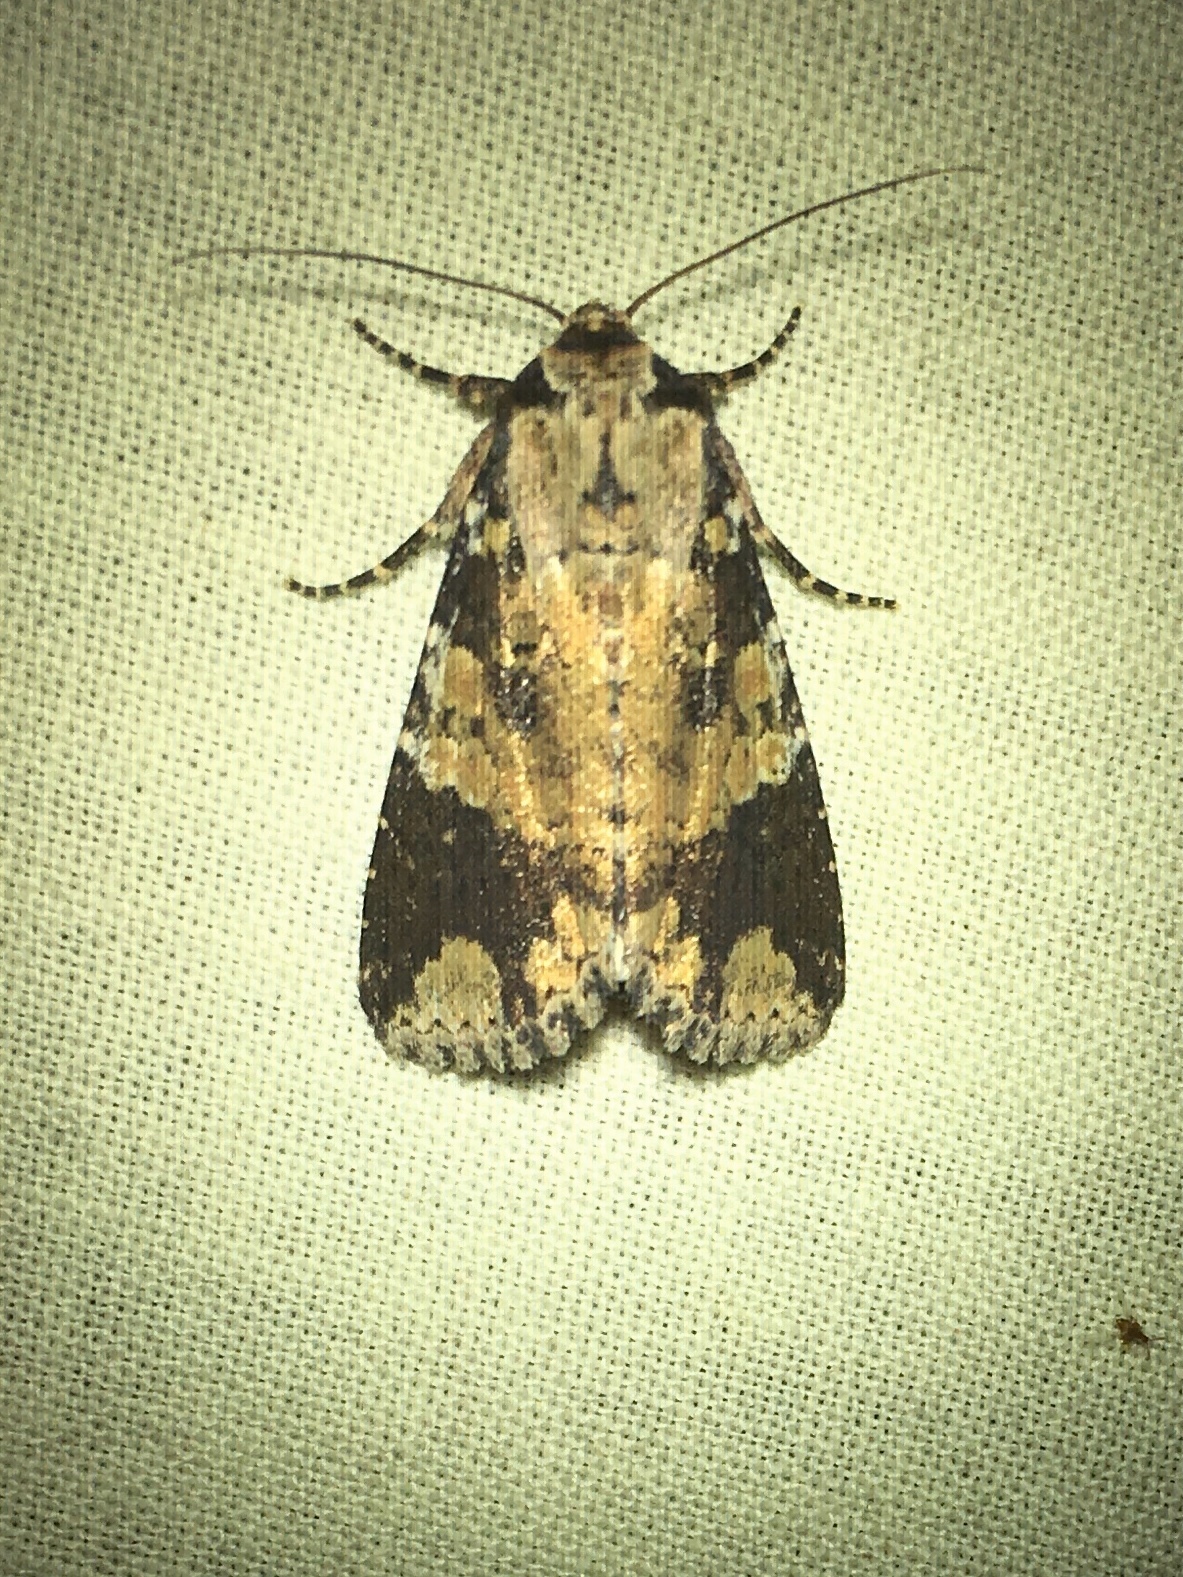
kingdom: Animalia
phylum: Arthropoda
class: Insecta
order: Lepidoptera
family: Noctuidae
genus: Condica
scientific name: Condica confederata
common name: The confederate
